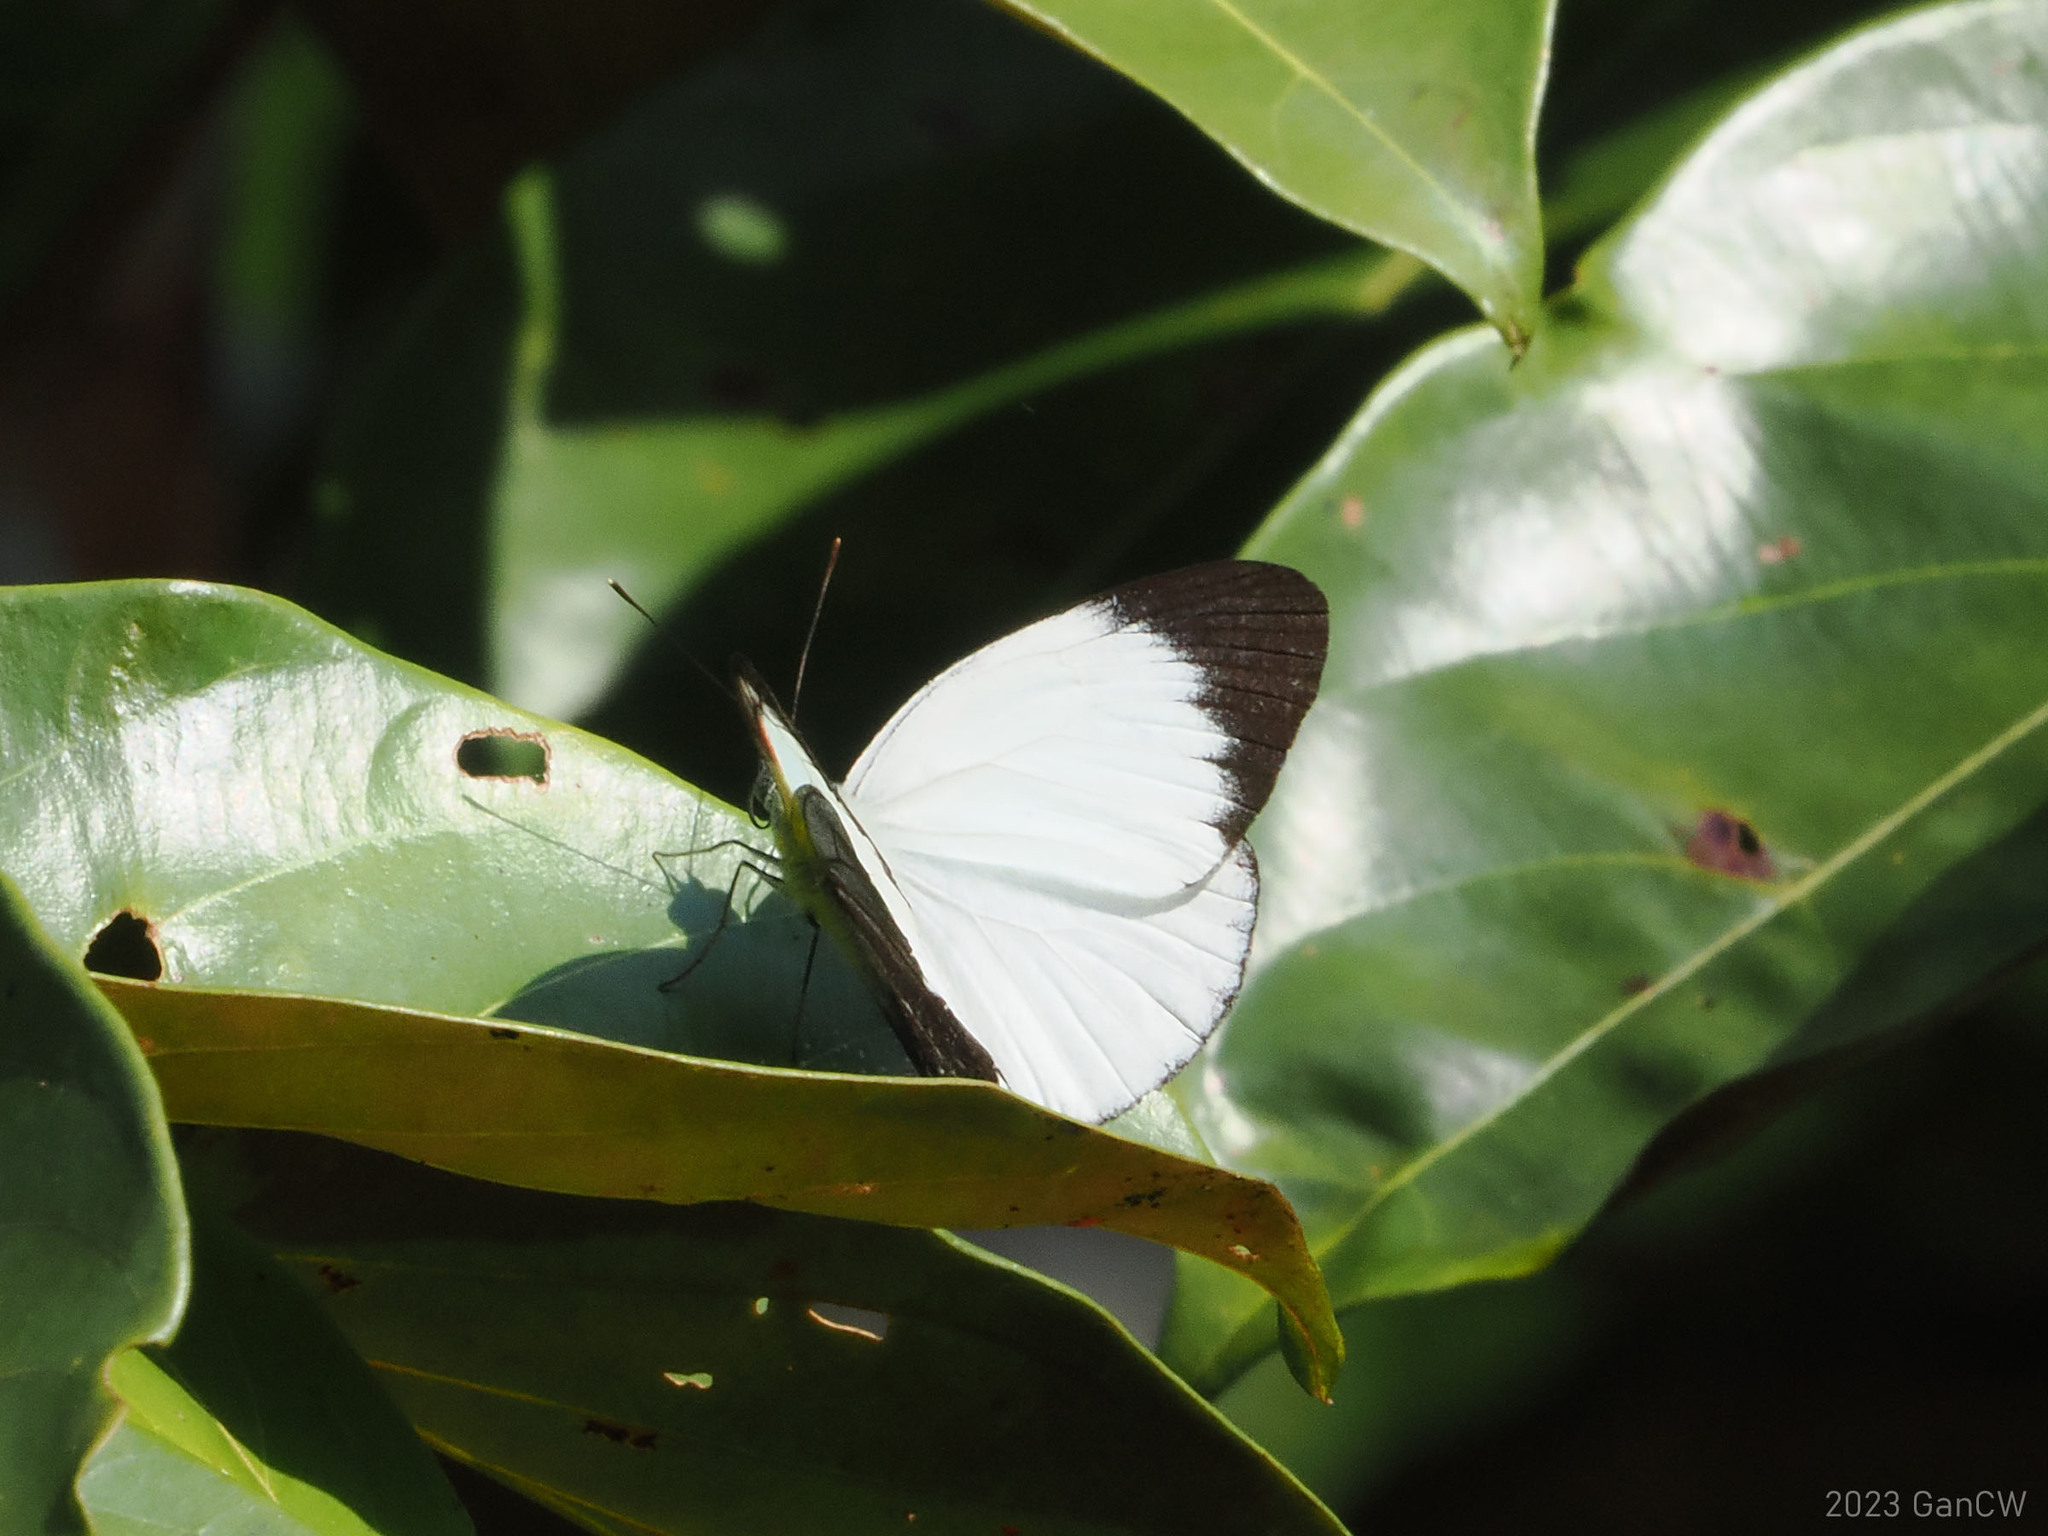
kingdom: Animalia
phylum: Arthropoda
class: Insecta
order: Lepidoptera
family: Pieridae
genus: Cepora
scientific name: Cepora abnormis
